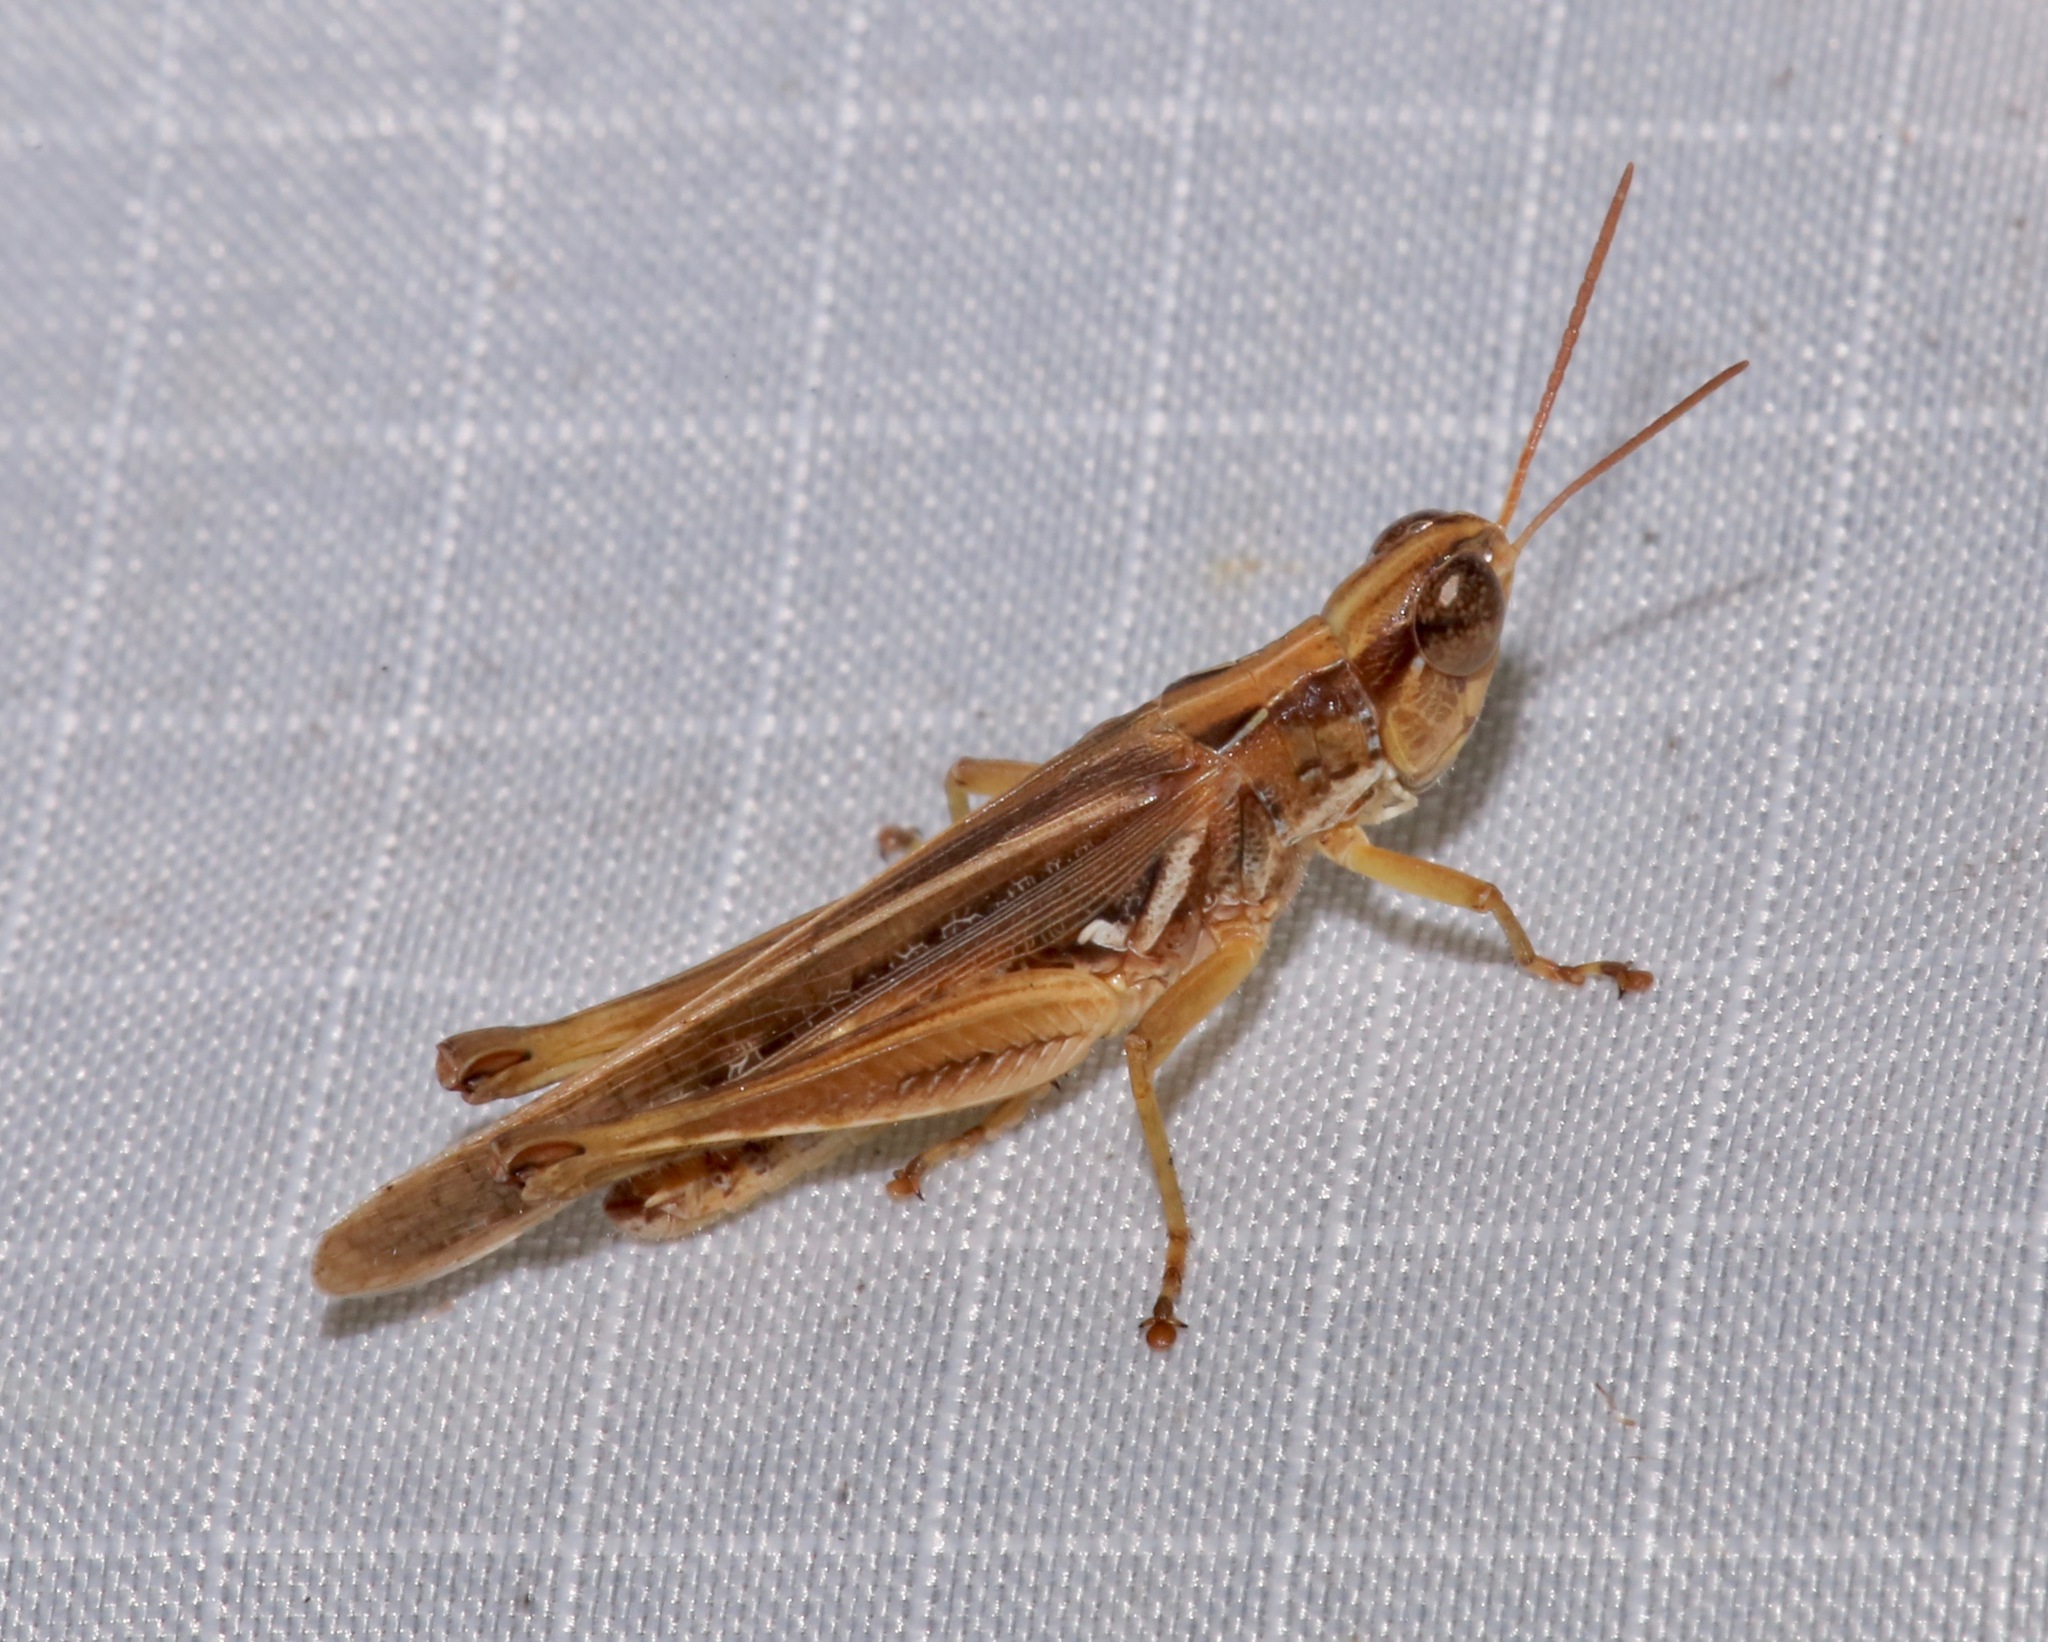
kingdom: Animalia
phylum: Arthropoda
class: Insecta
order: Orthoptera
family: Acrididae
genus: Orphulella
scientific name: Orphulella pelidna
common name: Spotted-wing grasshopper
